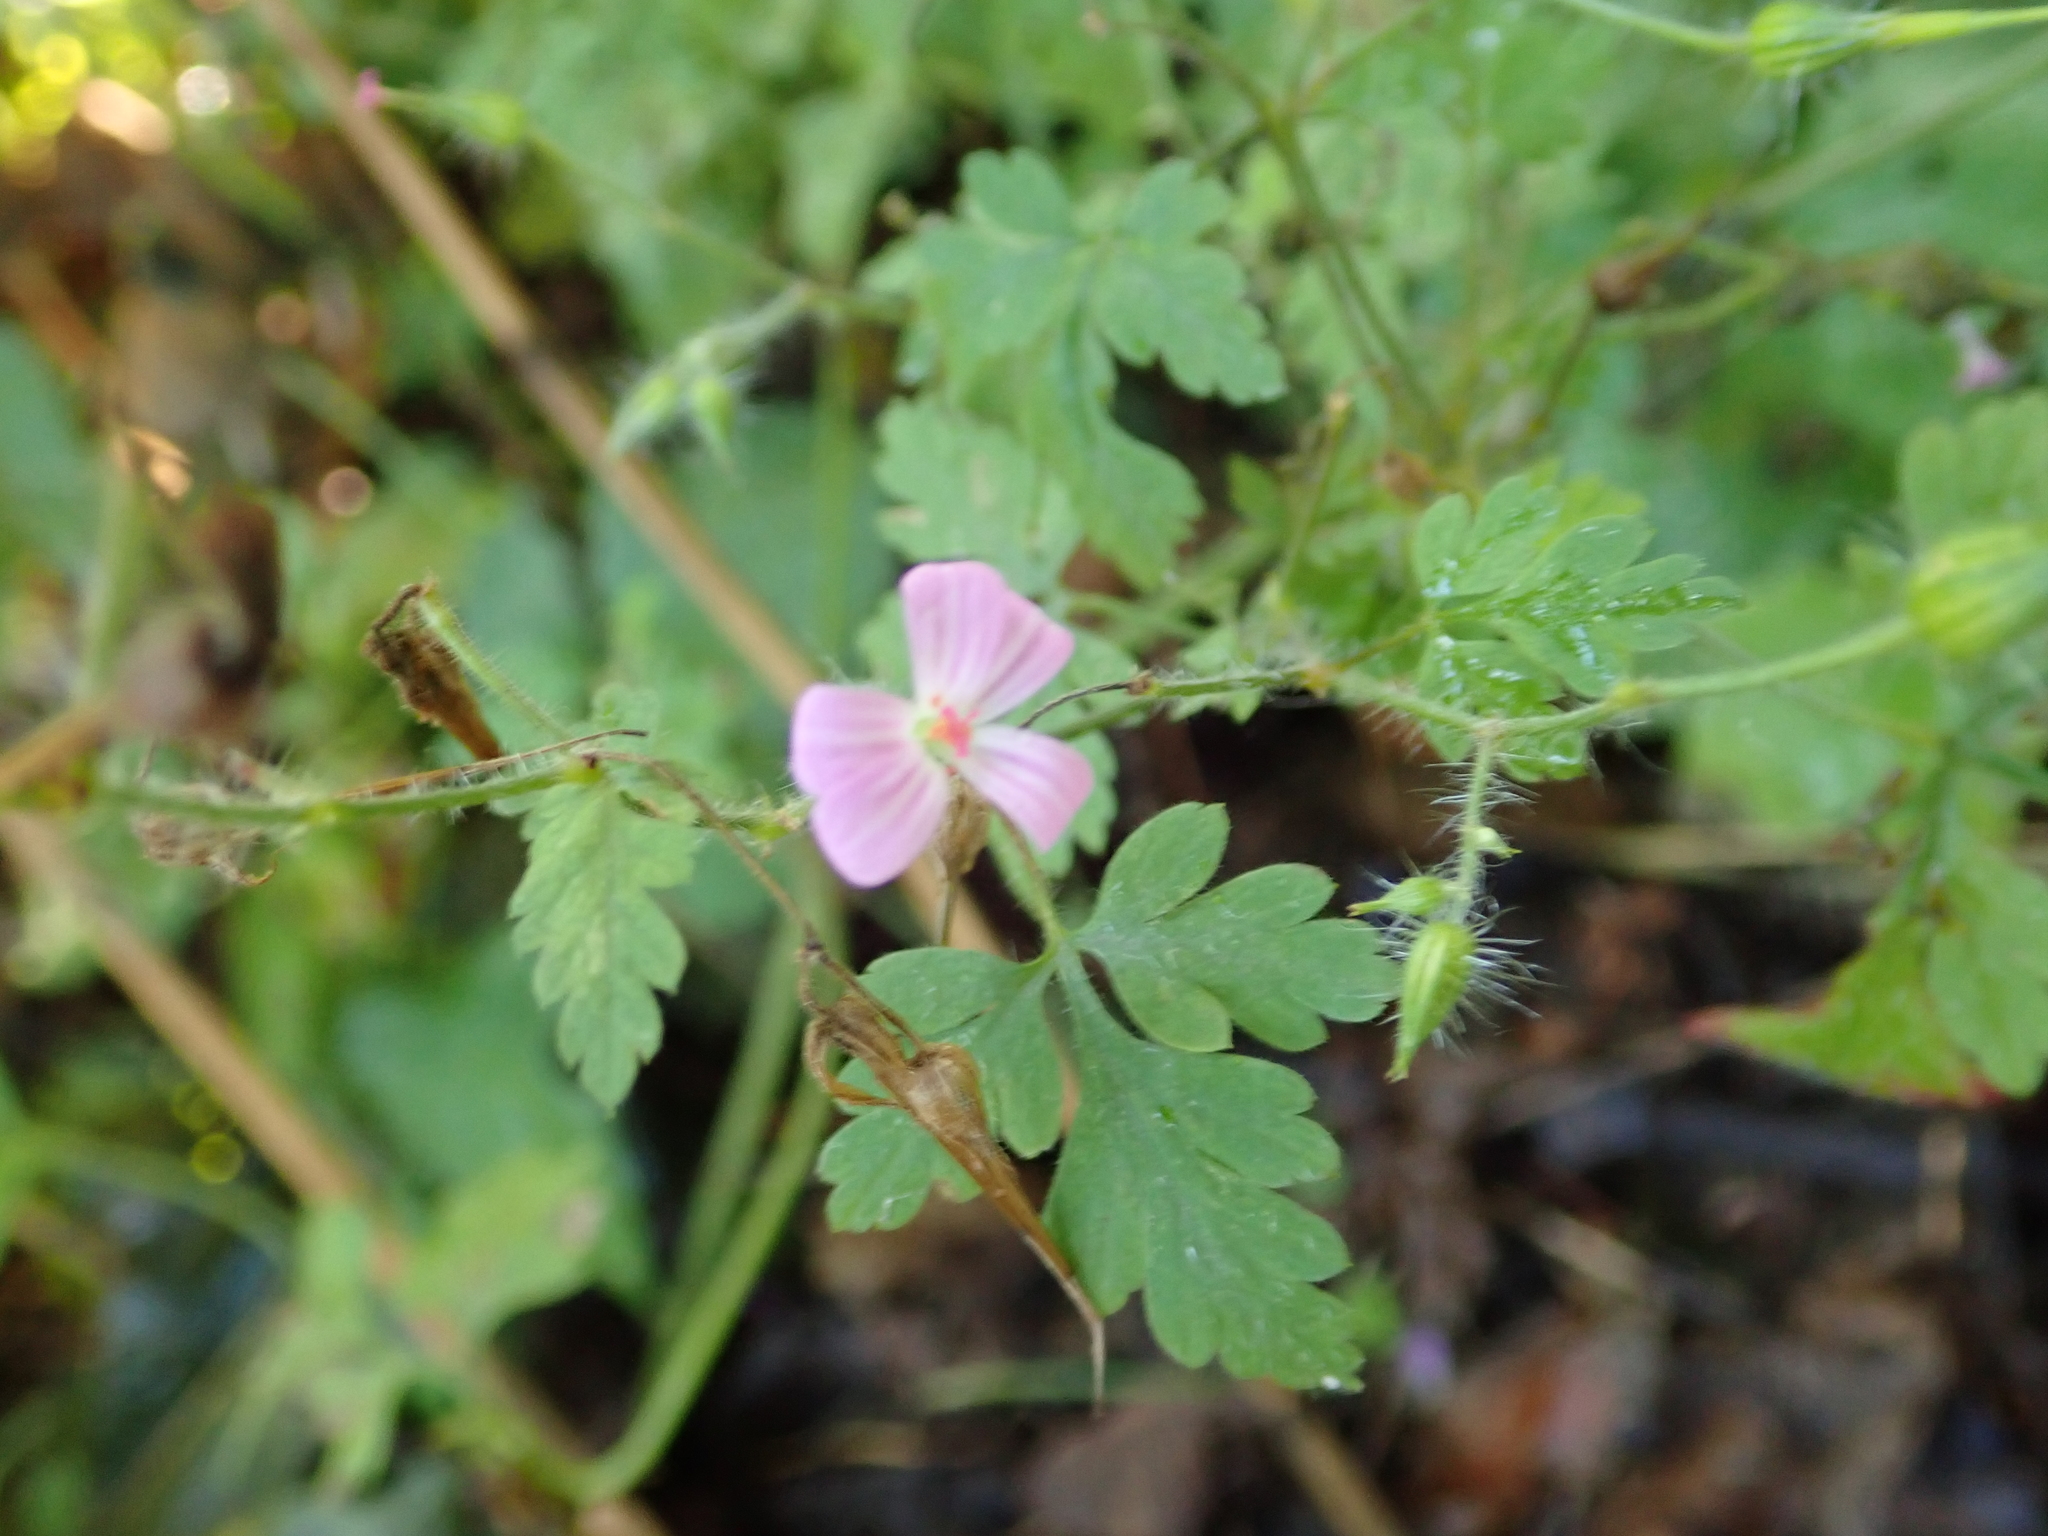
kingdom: Plantae
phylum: Tracheophyta
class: Magnoliopsida
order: Geraniales
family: Geraniaceae
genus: Geranium
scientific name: Geranium robertianum
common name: Herb-robert
